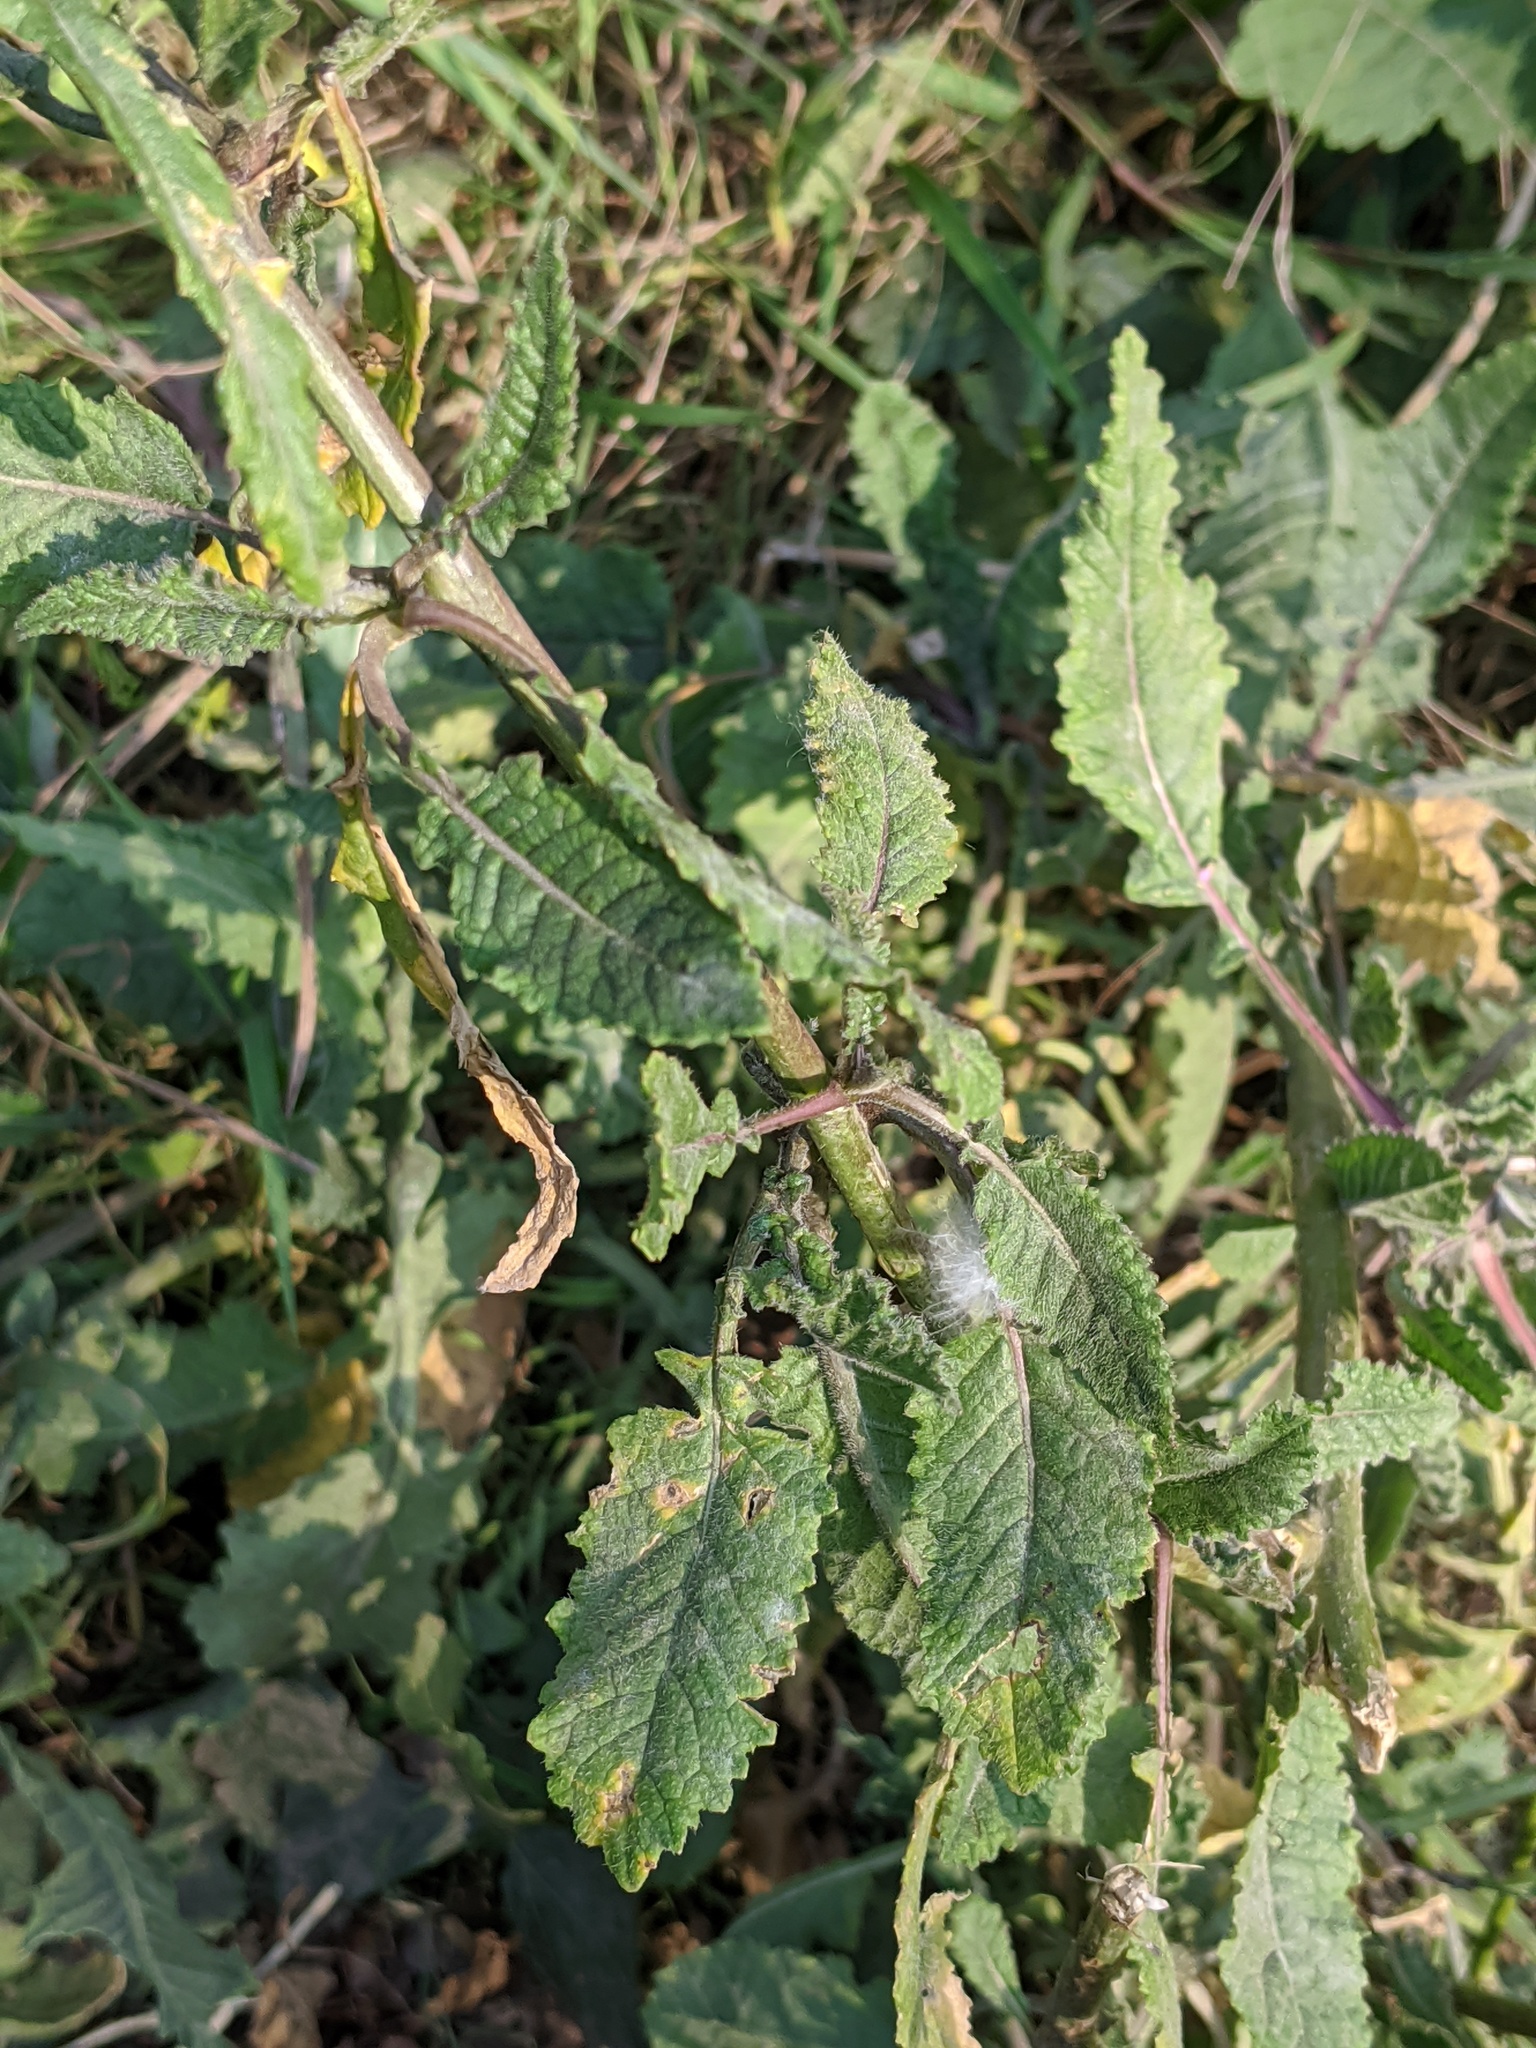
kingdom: Plantae
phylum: Tracheophyta
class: Magnoliopsida
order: Brassicales
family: Brassicaceae
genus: Hirschfeldia
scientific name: Hirschfeldia incana
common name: Hoary mustard
